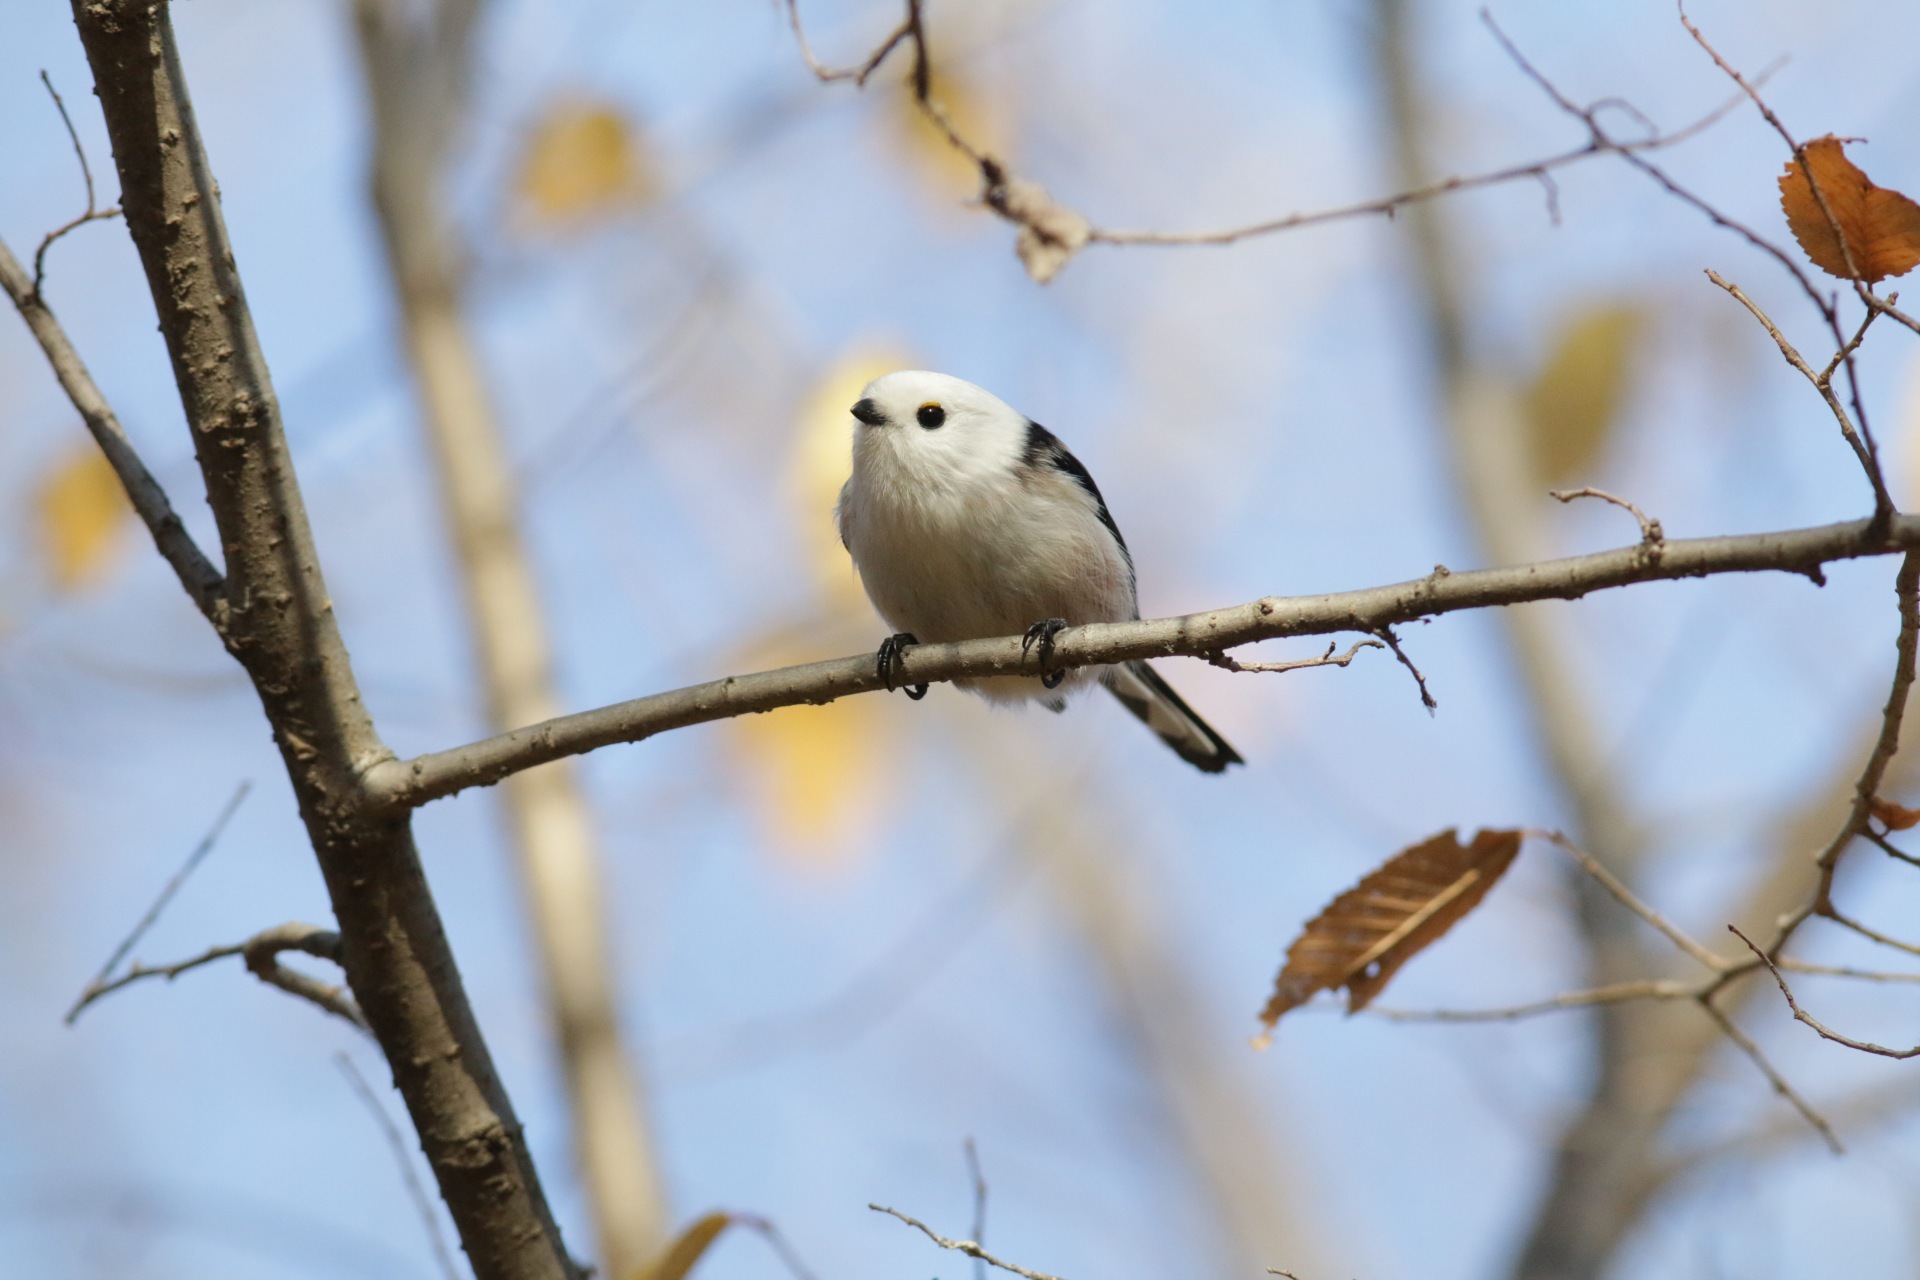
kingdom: Animalia
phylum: Chordata
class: Aves
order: Passeriformes
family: Aegithalidae
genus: Aegithalos
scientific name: Aegithalos caudatus
